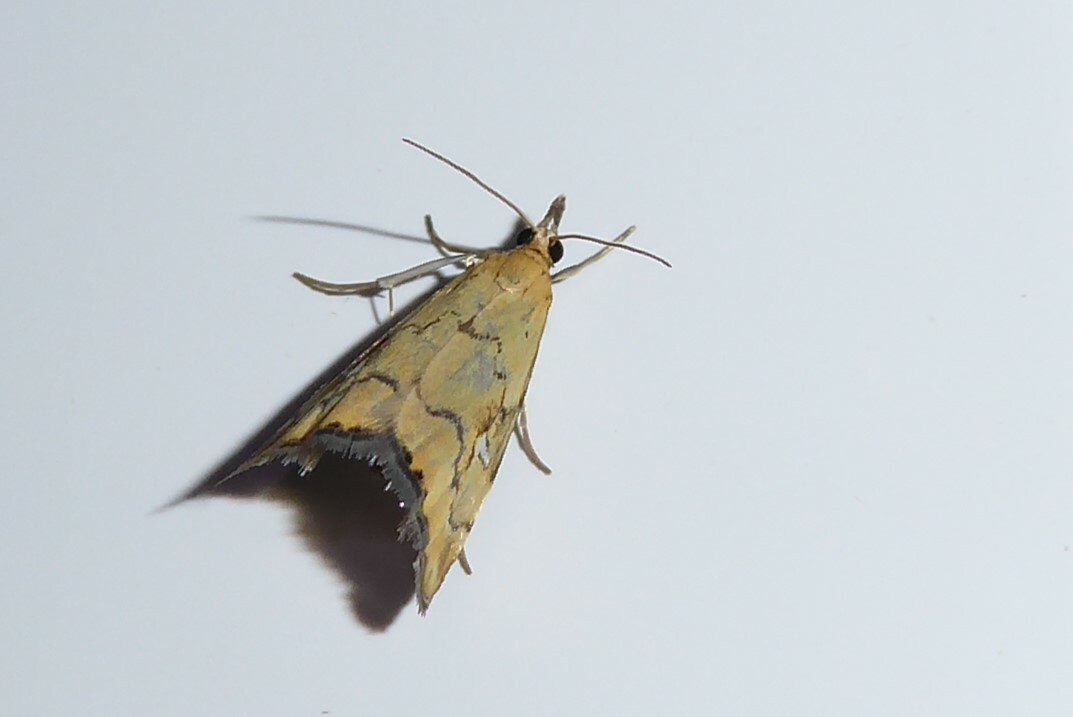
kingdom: Animalia
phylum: Arthropoda
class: Insecta
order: Lepidoptera
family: Crambidae
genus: Glaucocharis
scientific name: Glaucocharis lepidella
